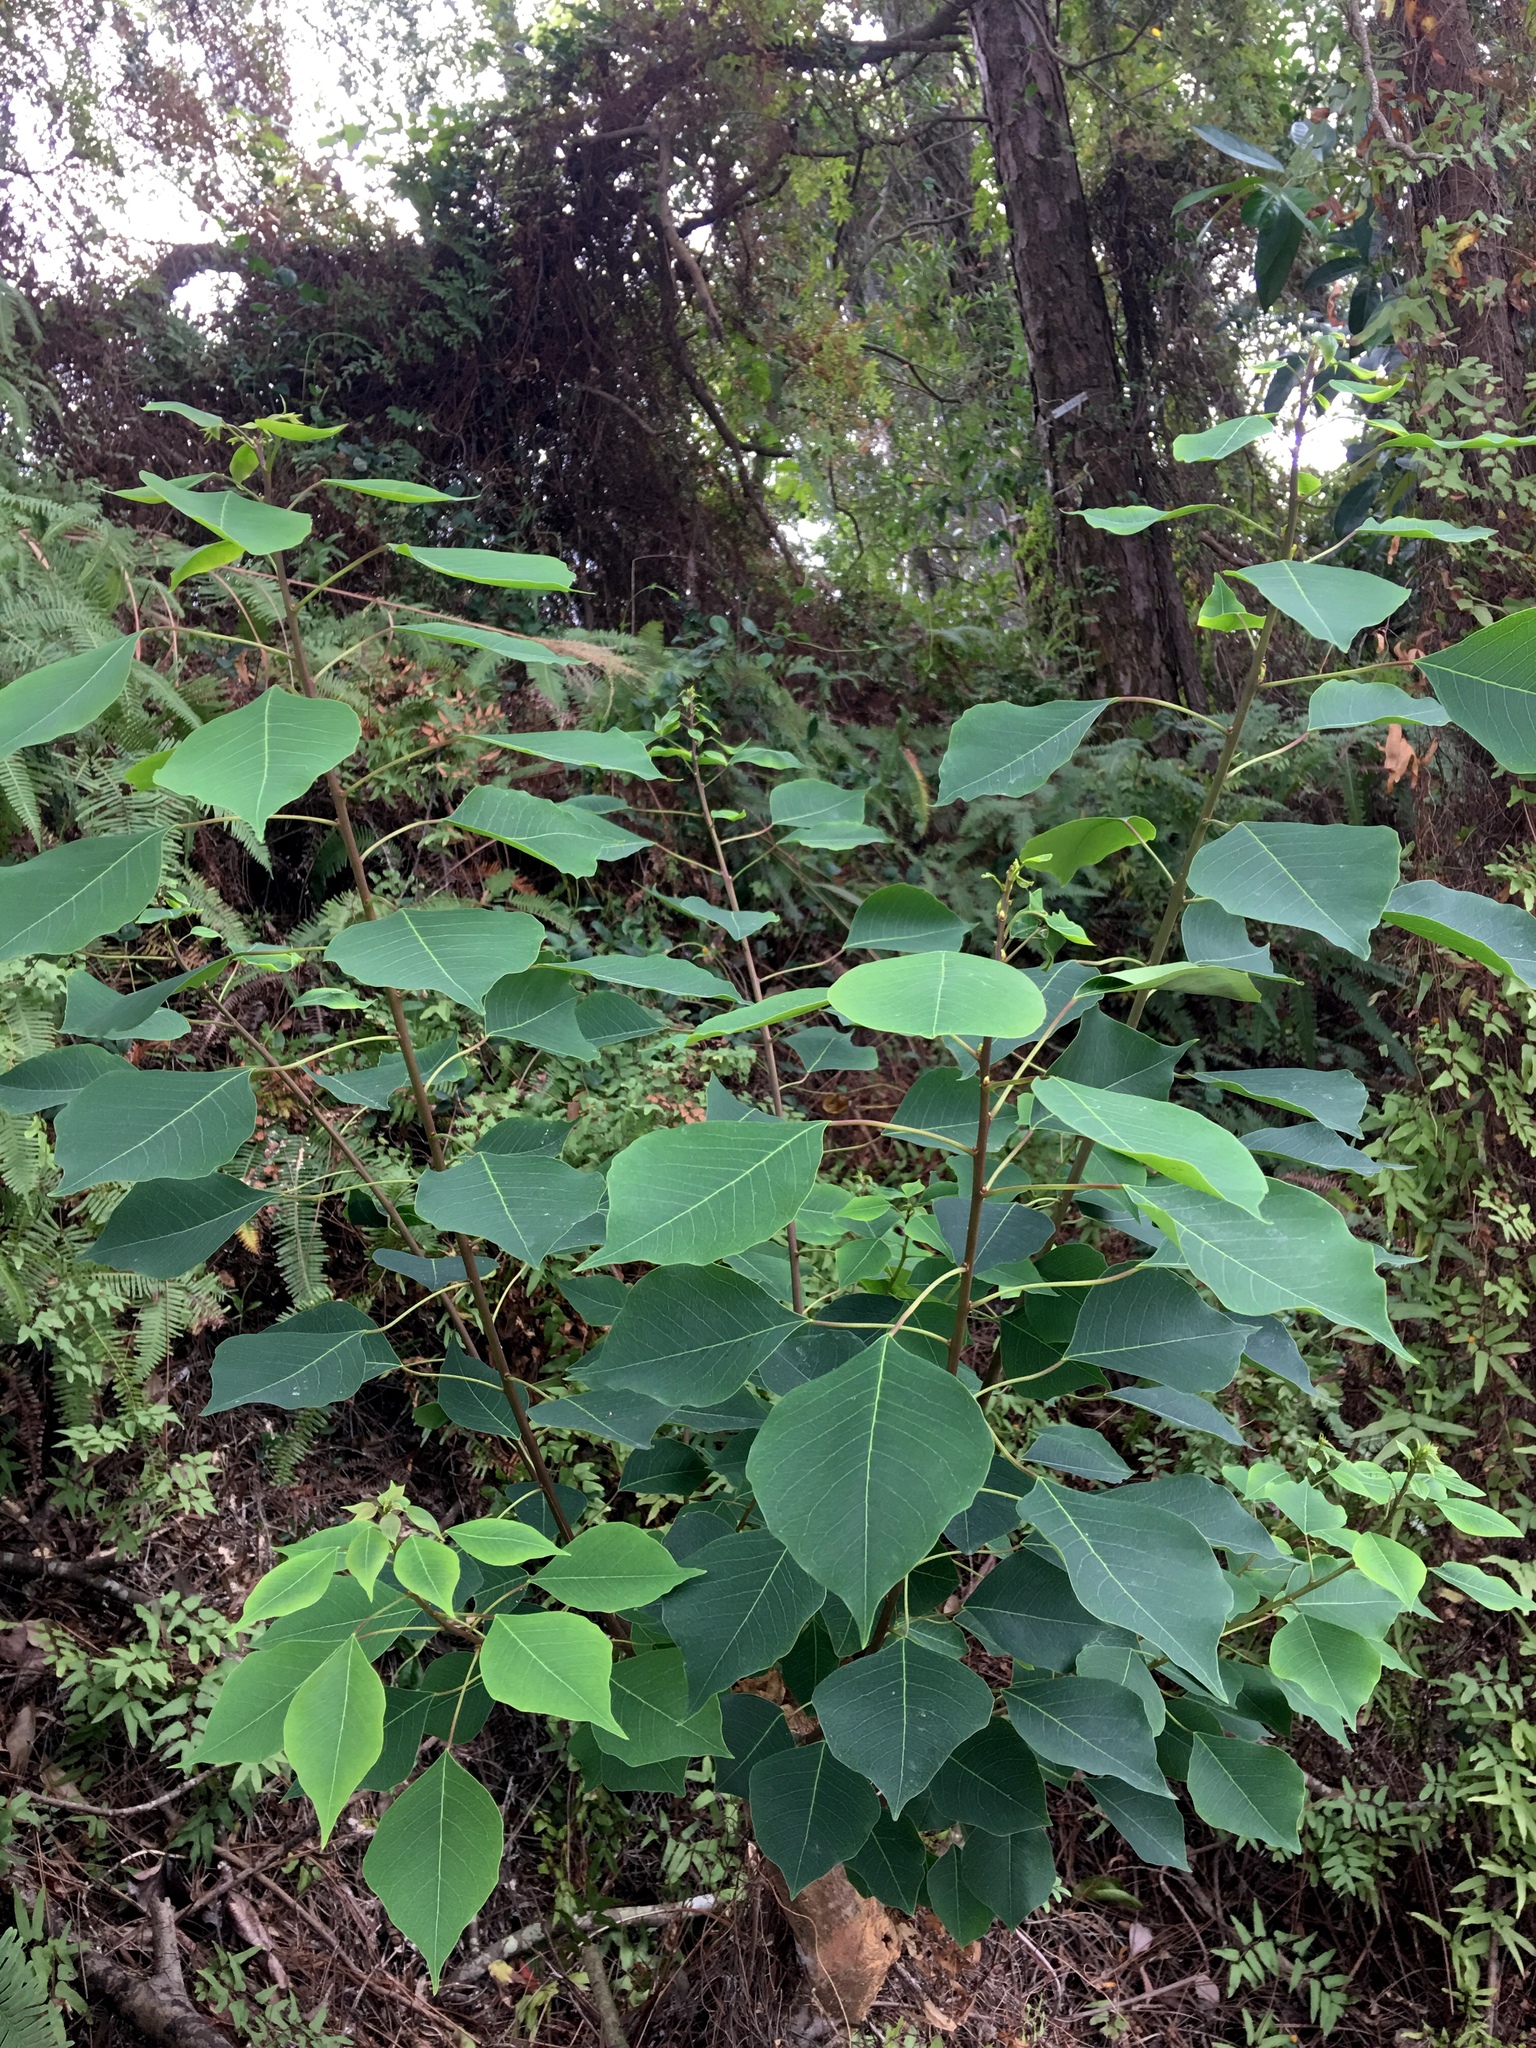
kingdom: Plantae
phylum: Tracheophyta
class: Magnoliopsida
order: Malpighiales
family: Euphorbiaceae
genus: Triadica
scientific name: Triadica sebifera
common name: Chinese tallow
